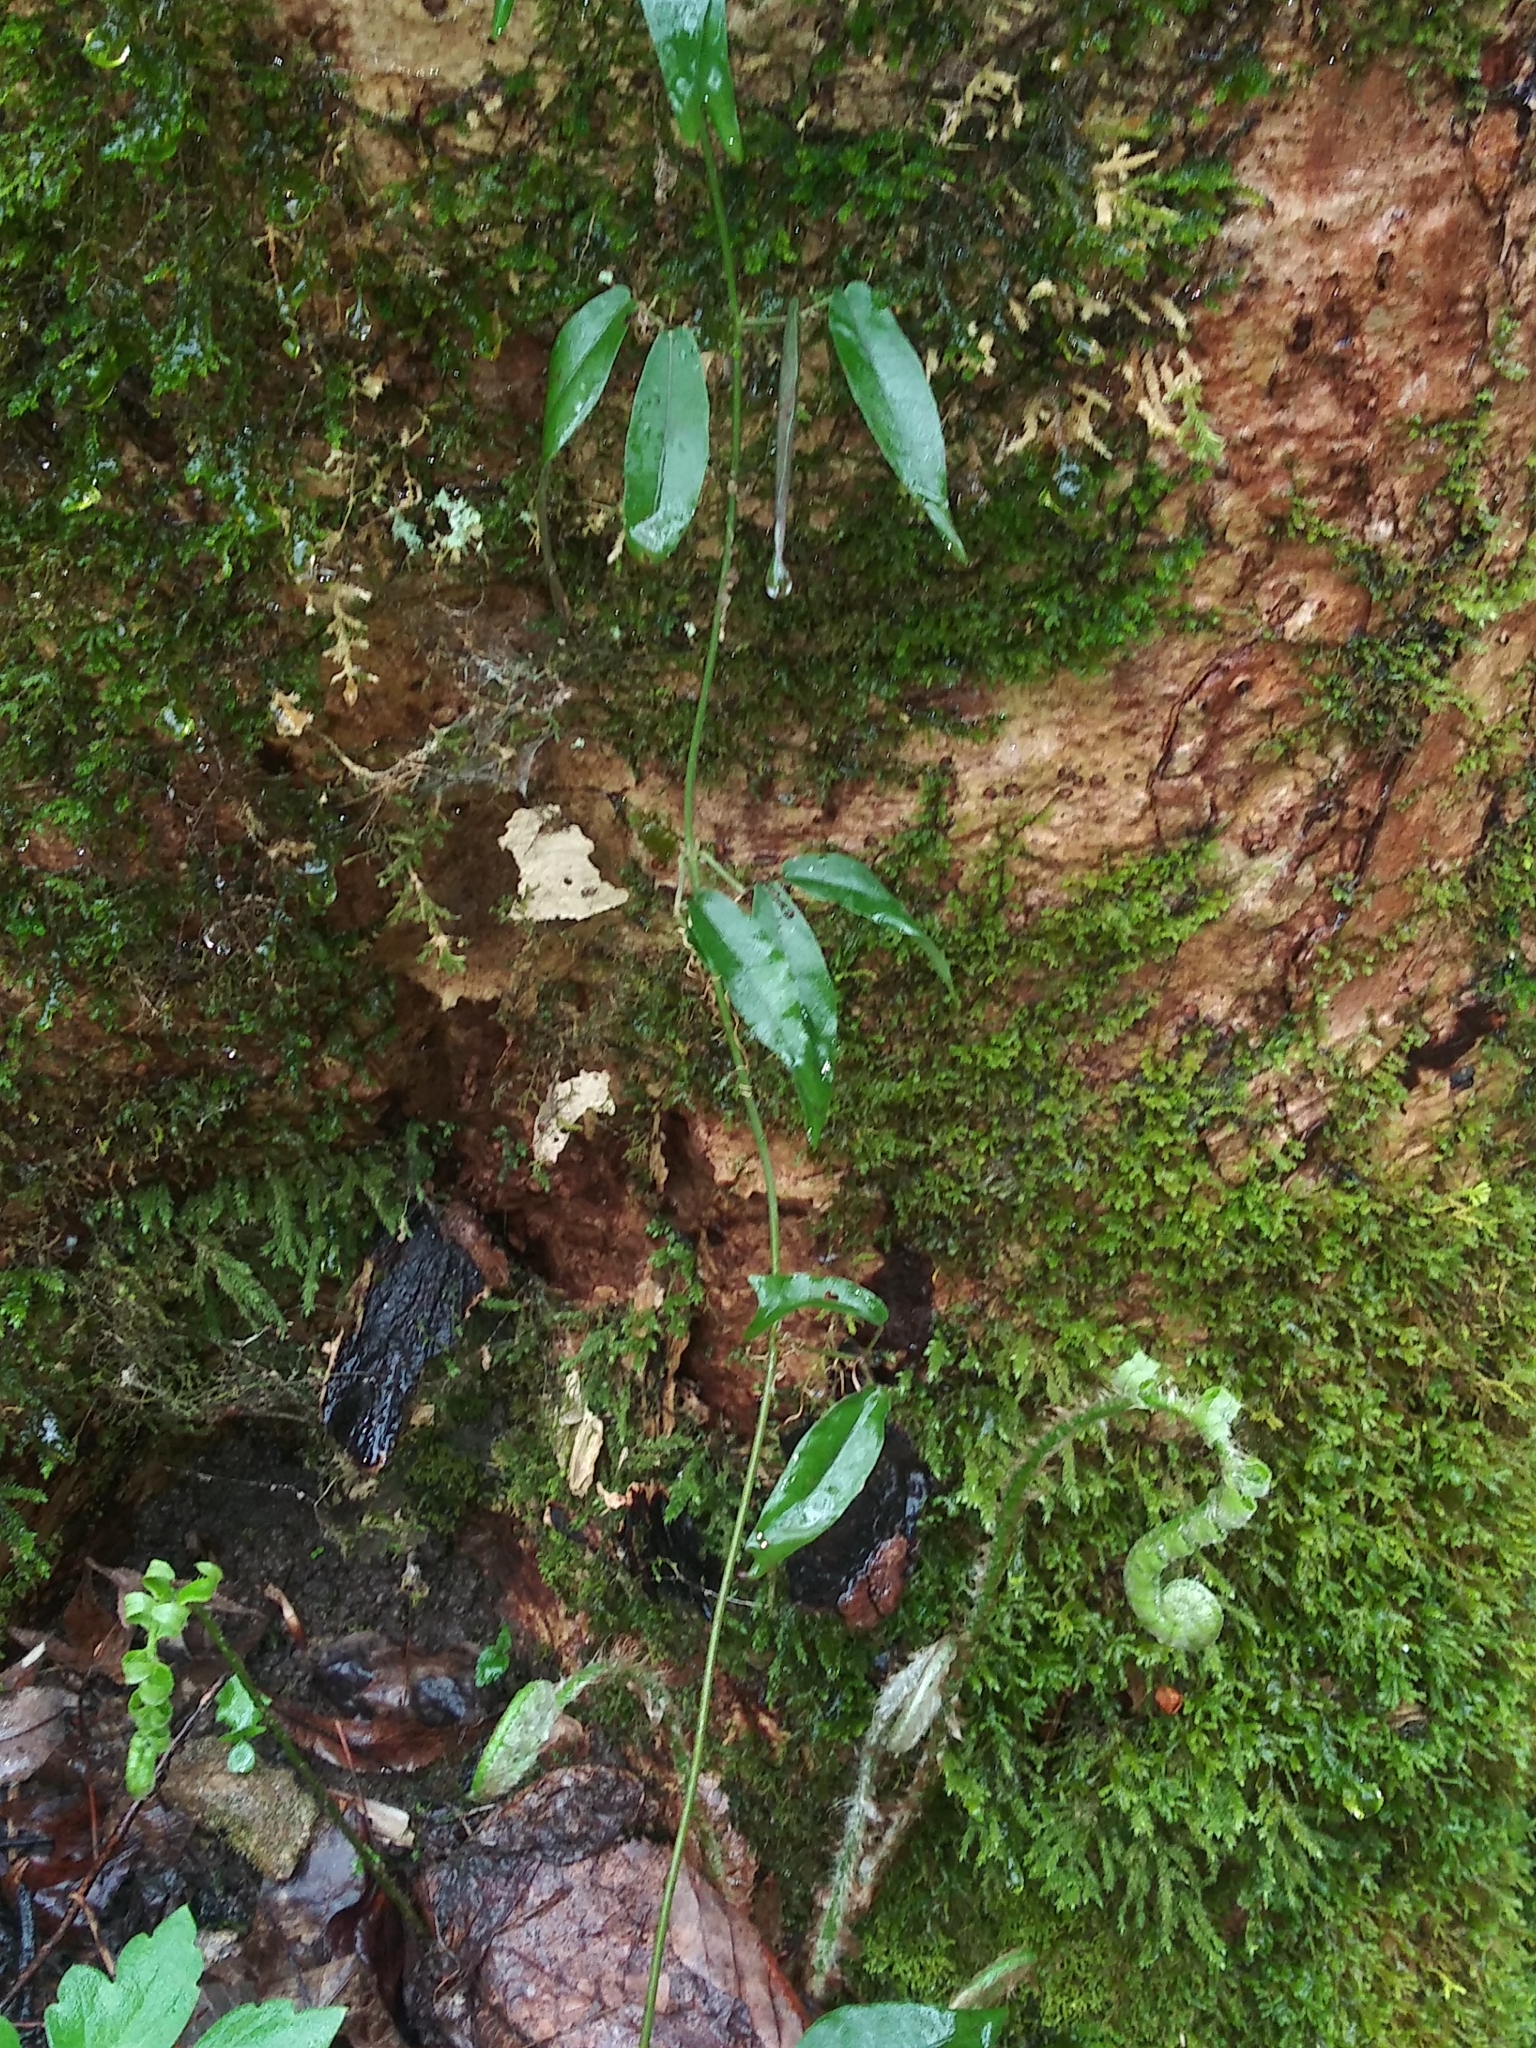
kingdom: Plantae
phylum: Tracheophyta
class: Magnoliopsida
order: Lamiales
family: Bignoniaceae
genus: Bignonia
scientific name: Bignonia capreolata
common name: Crossvine
